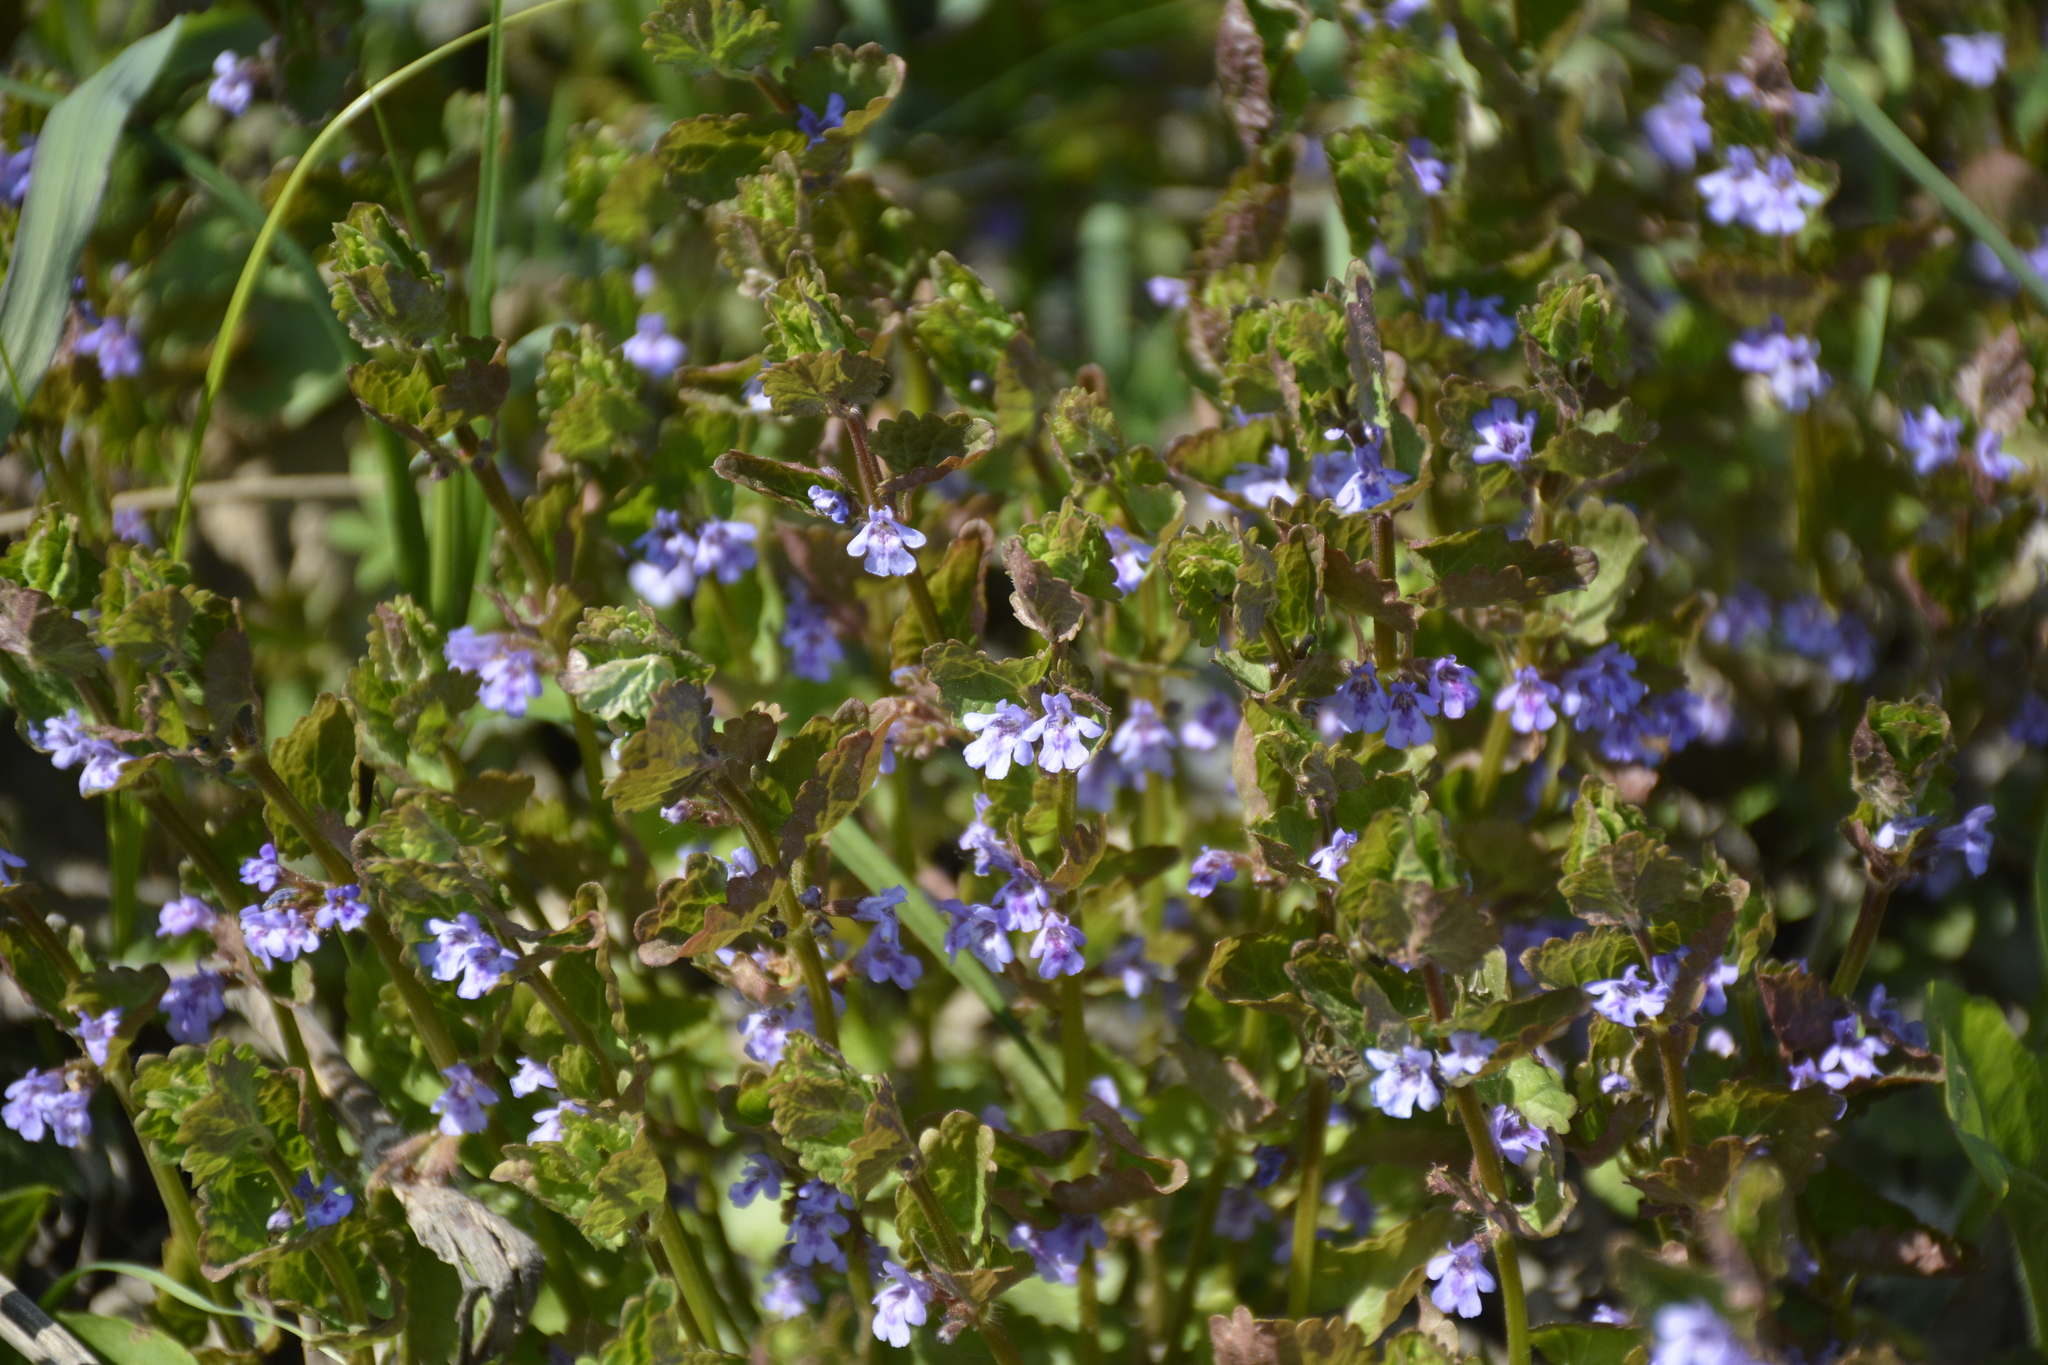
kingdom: Plantae
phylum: Tracheophyta
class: Magnoliopsida
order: Lamiales
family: Lamiaceae
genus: Glechoma
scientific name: Glechoma hederacea
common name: Ground ivy
